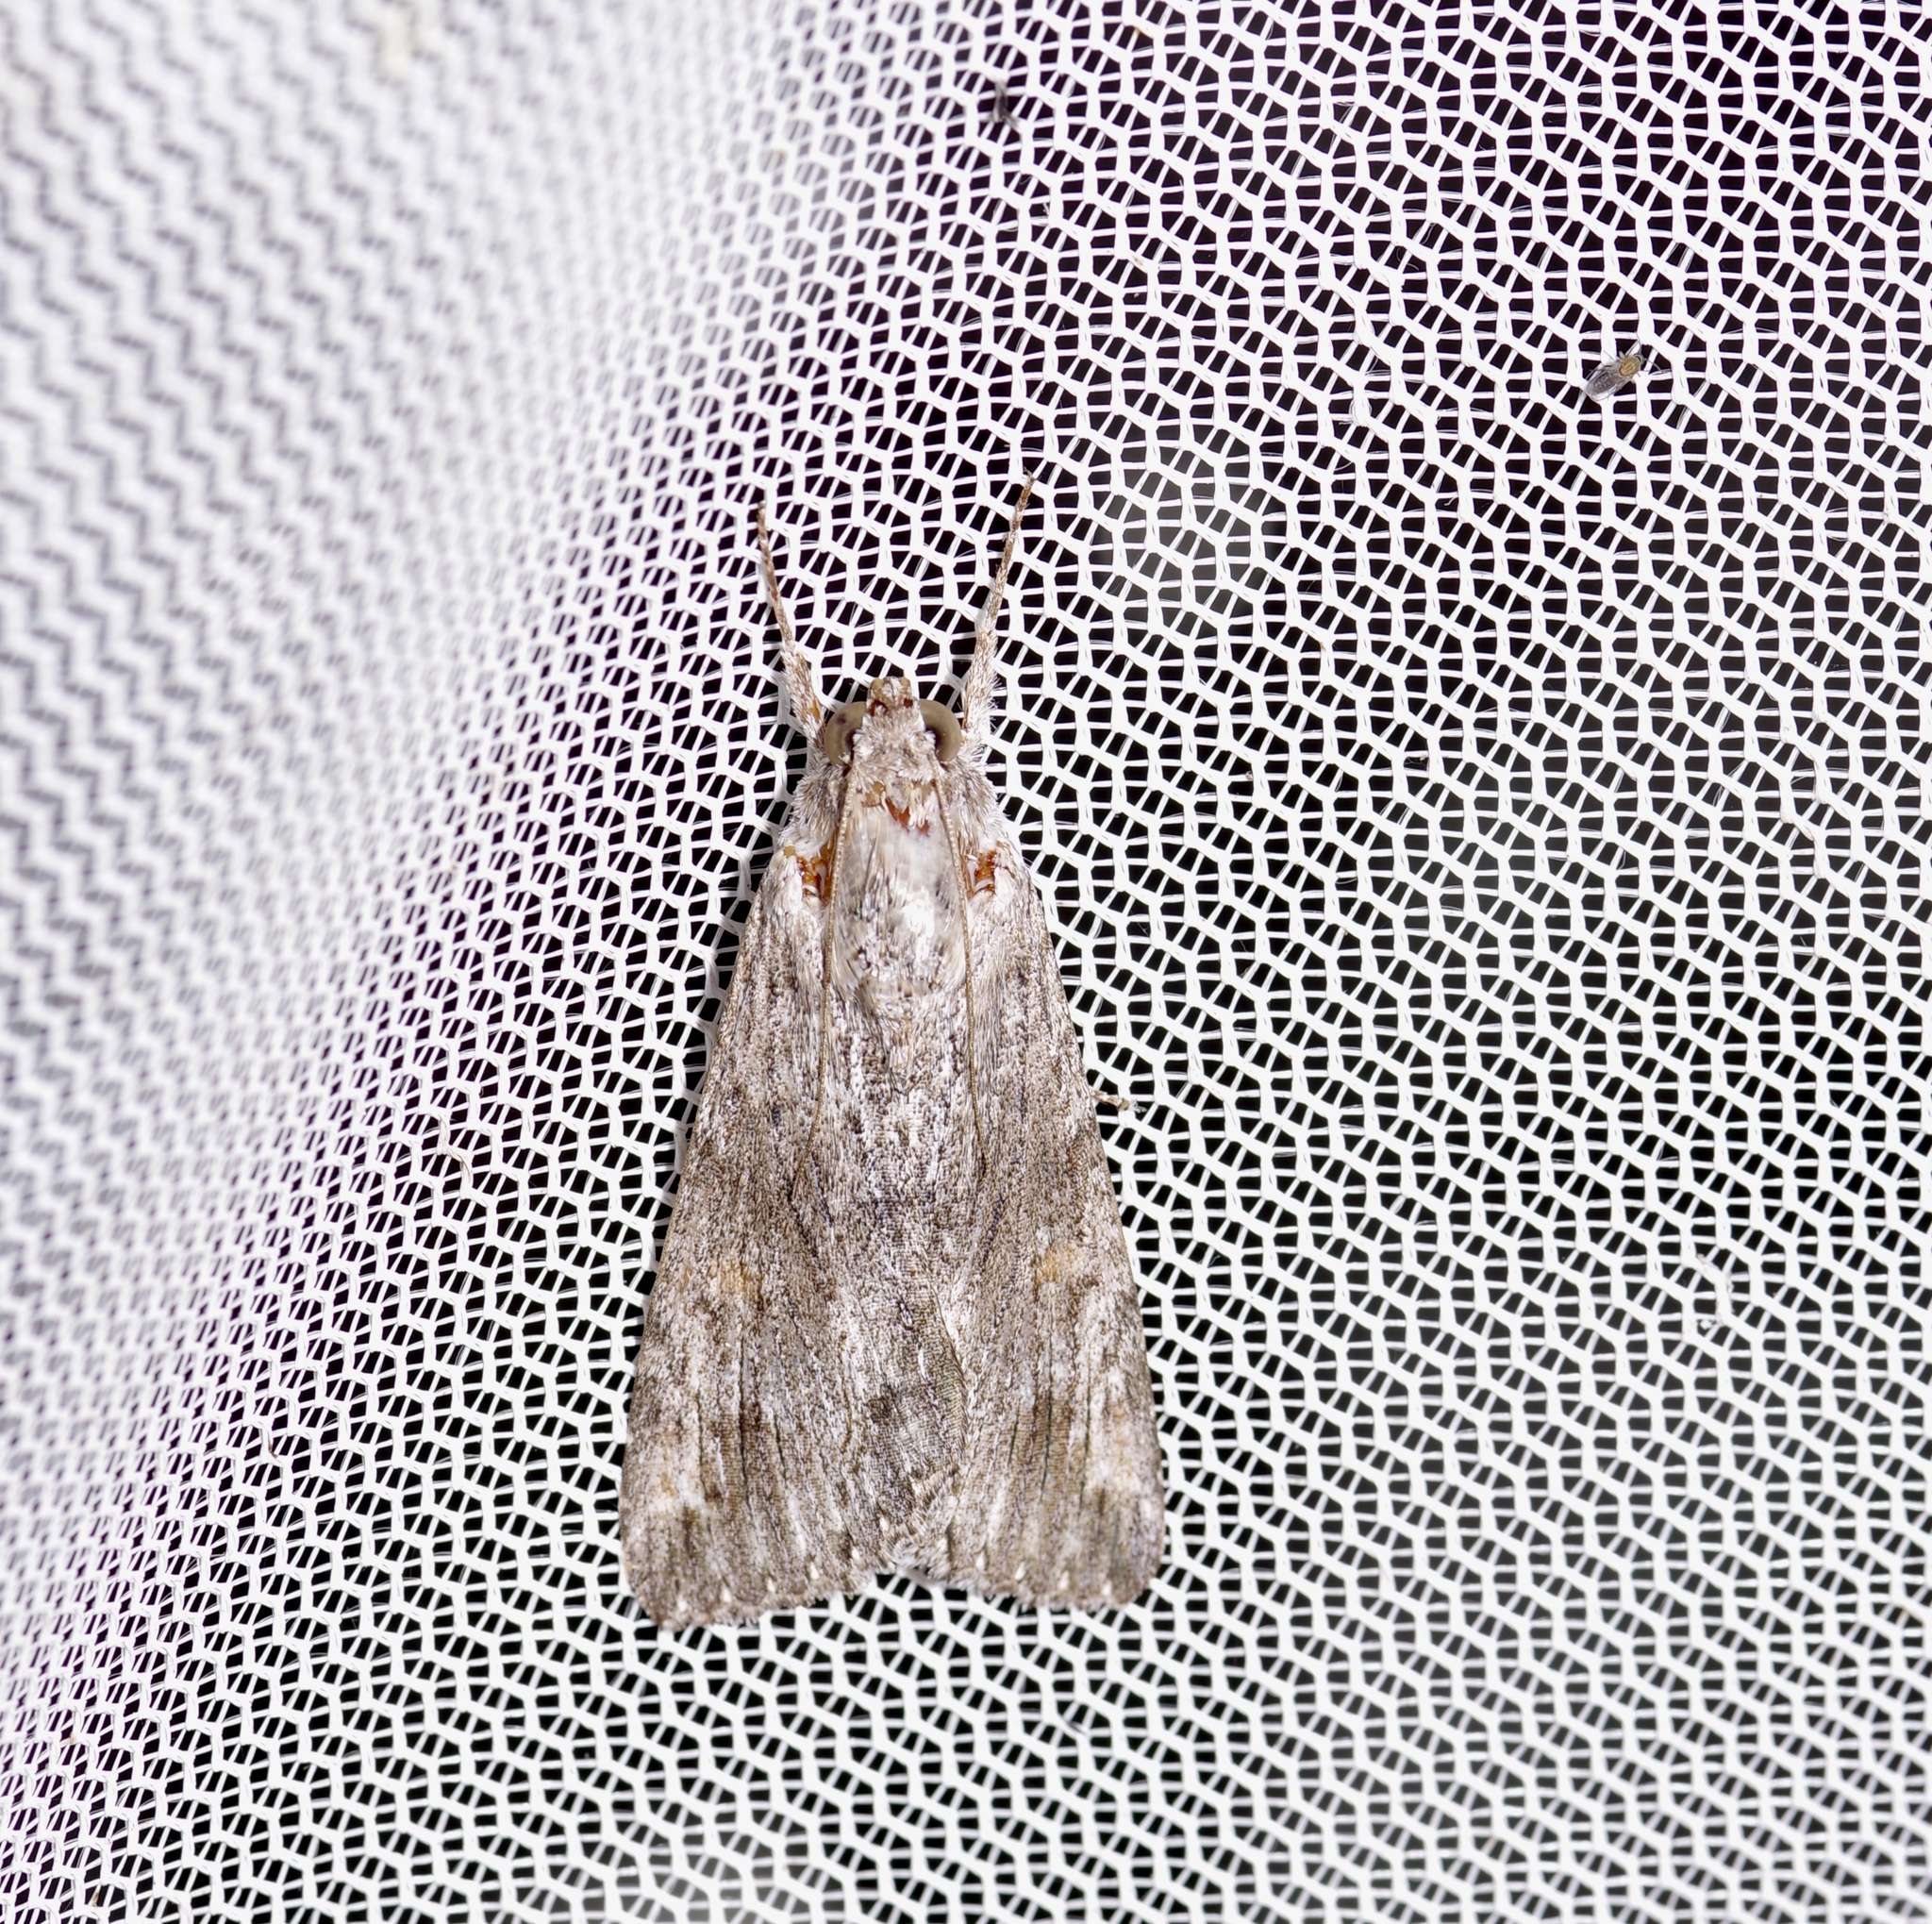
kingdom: Animalia
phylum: Arthropoda
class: Insecta
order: Lepidoptera
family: Erebidae
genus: Melipotis
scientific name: Melipotis acontioides
